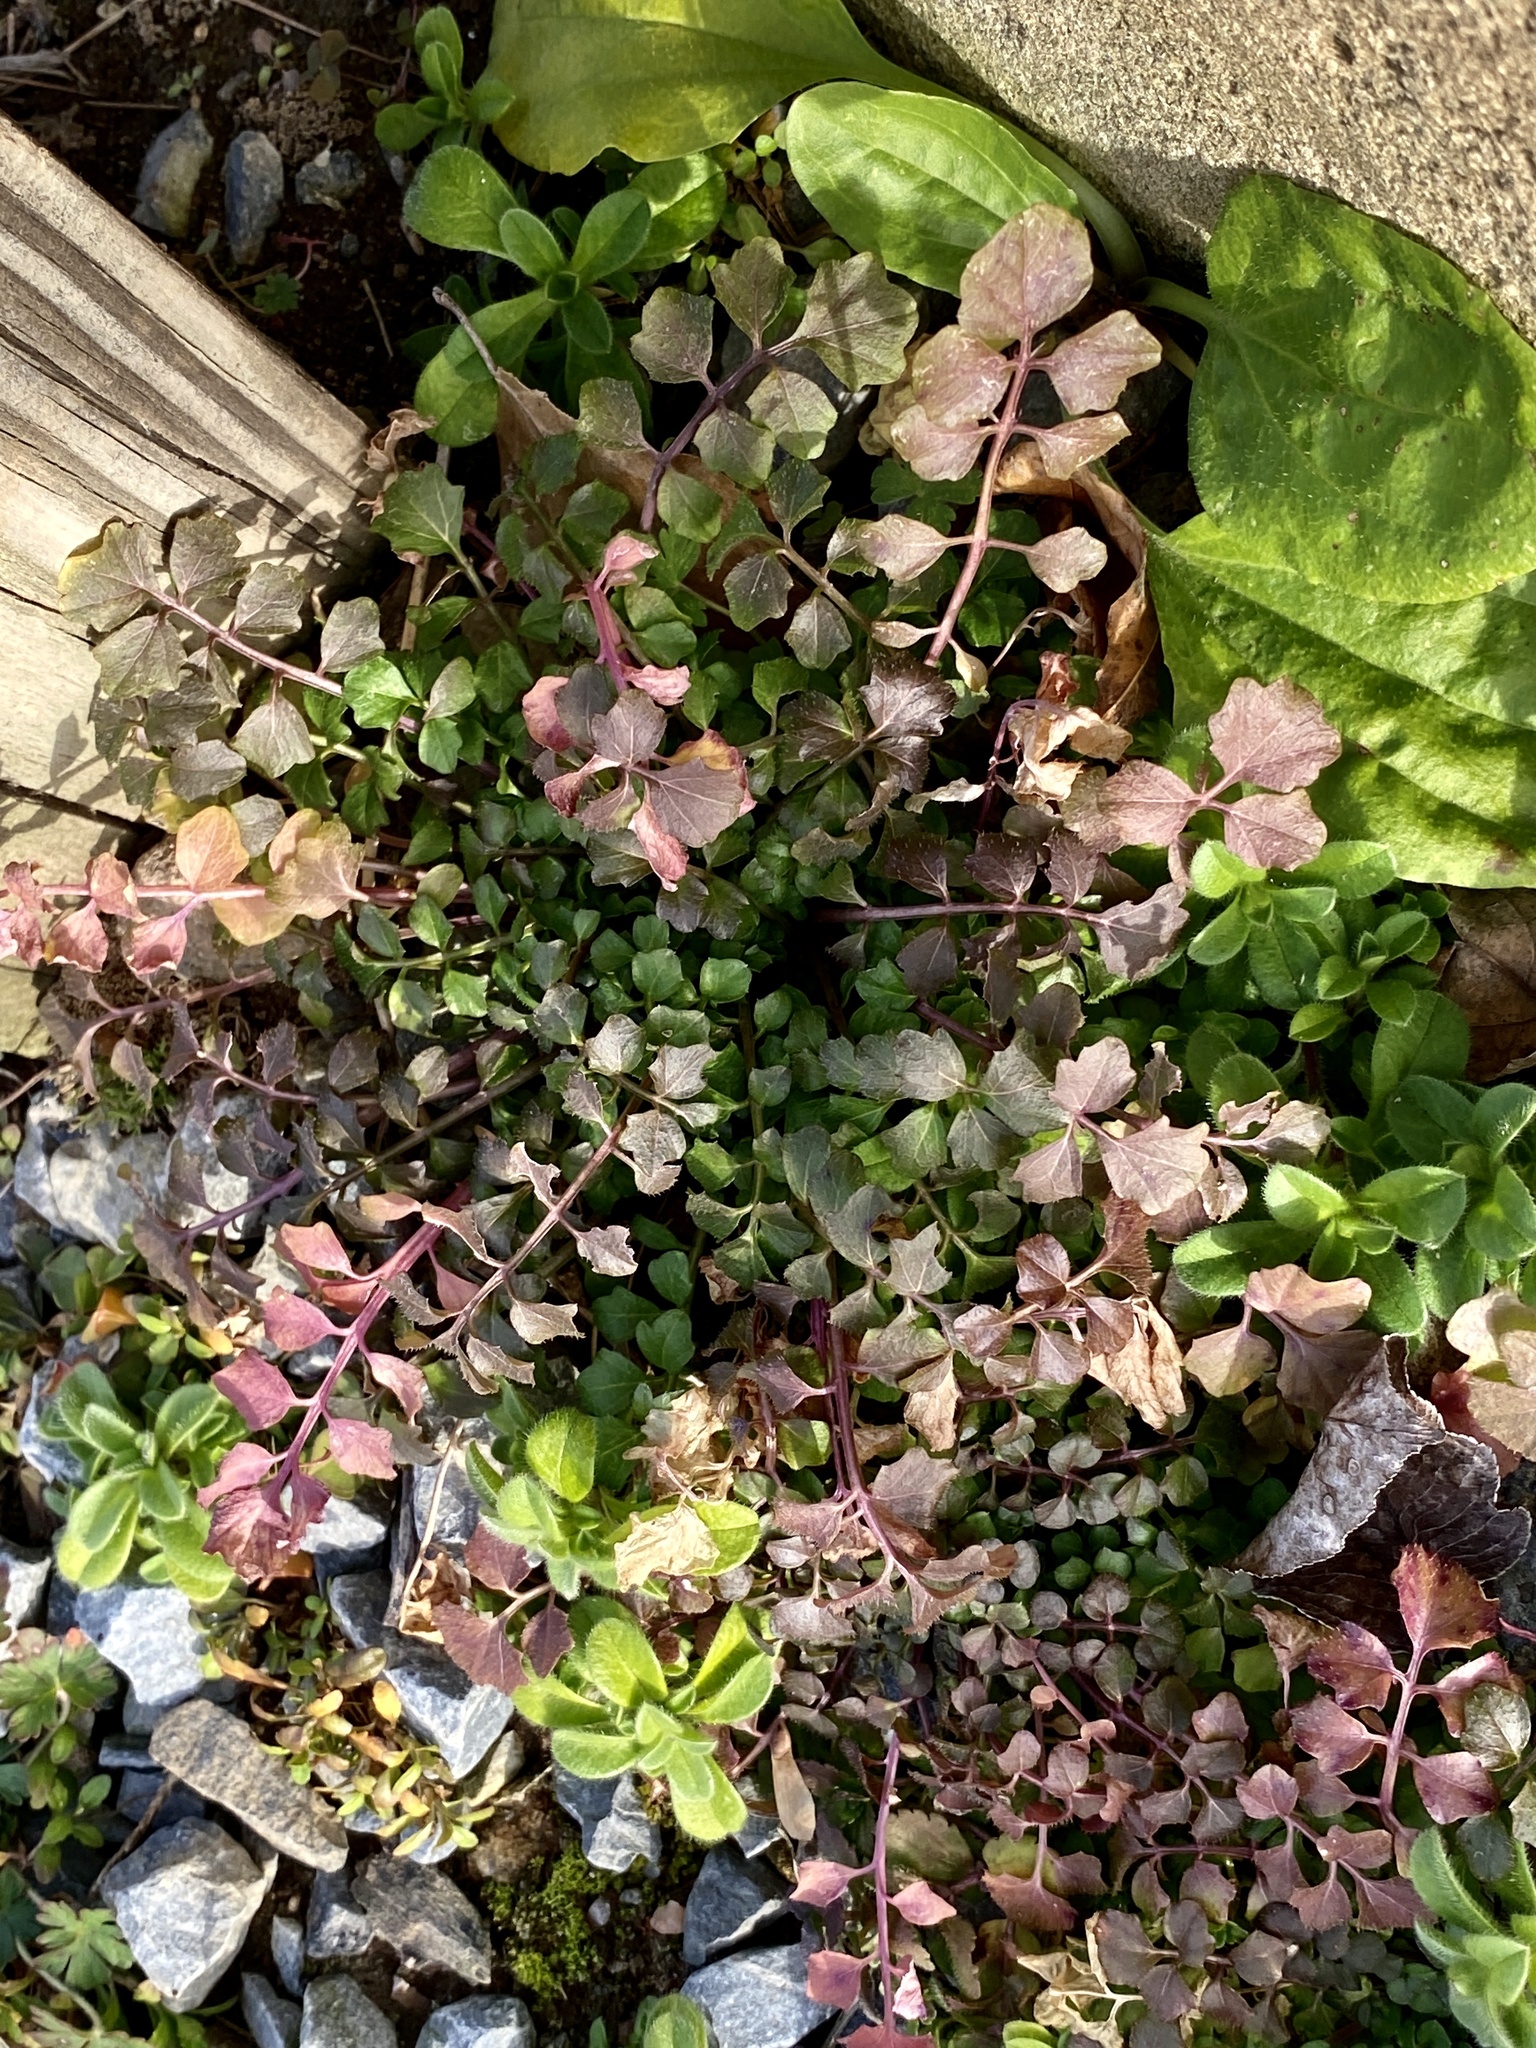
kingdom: Plantae
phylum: Tracheophyta
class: Magnoliopsida
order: Brassicales
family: Brassicaceae
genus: Cardamine
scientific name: Cardamine hirsuta
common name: Hairy bittercress
